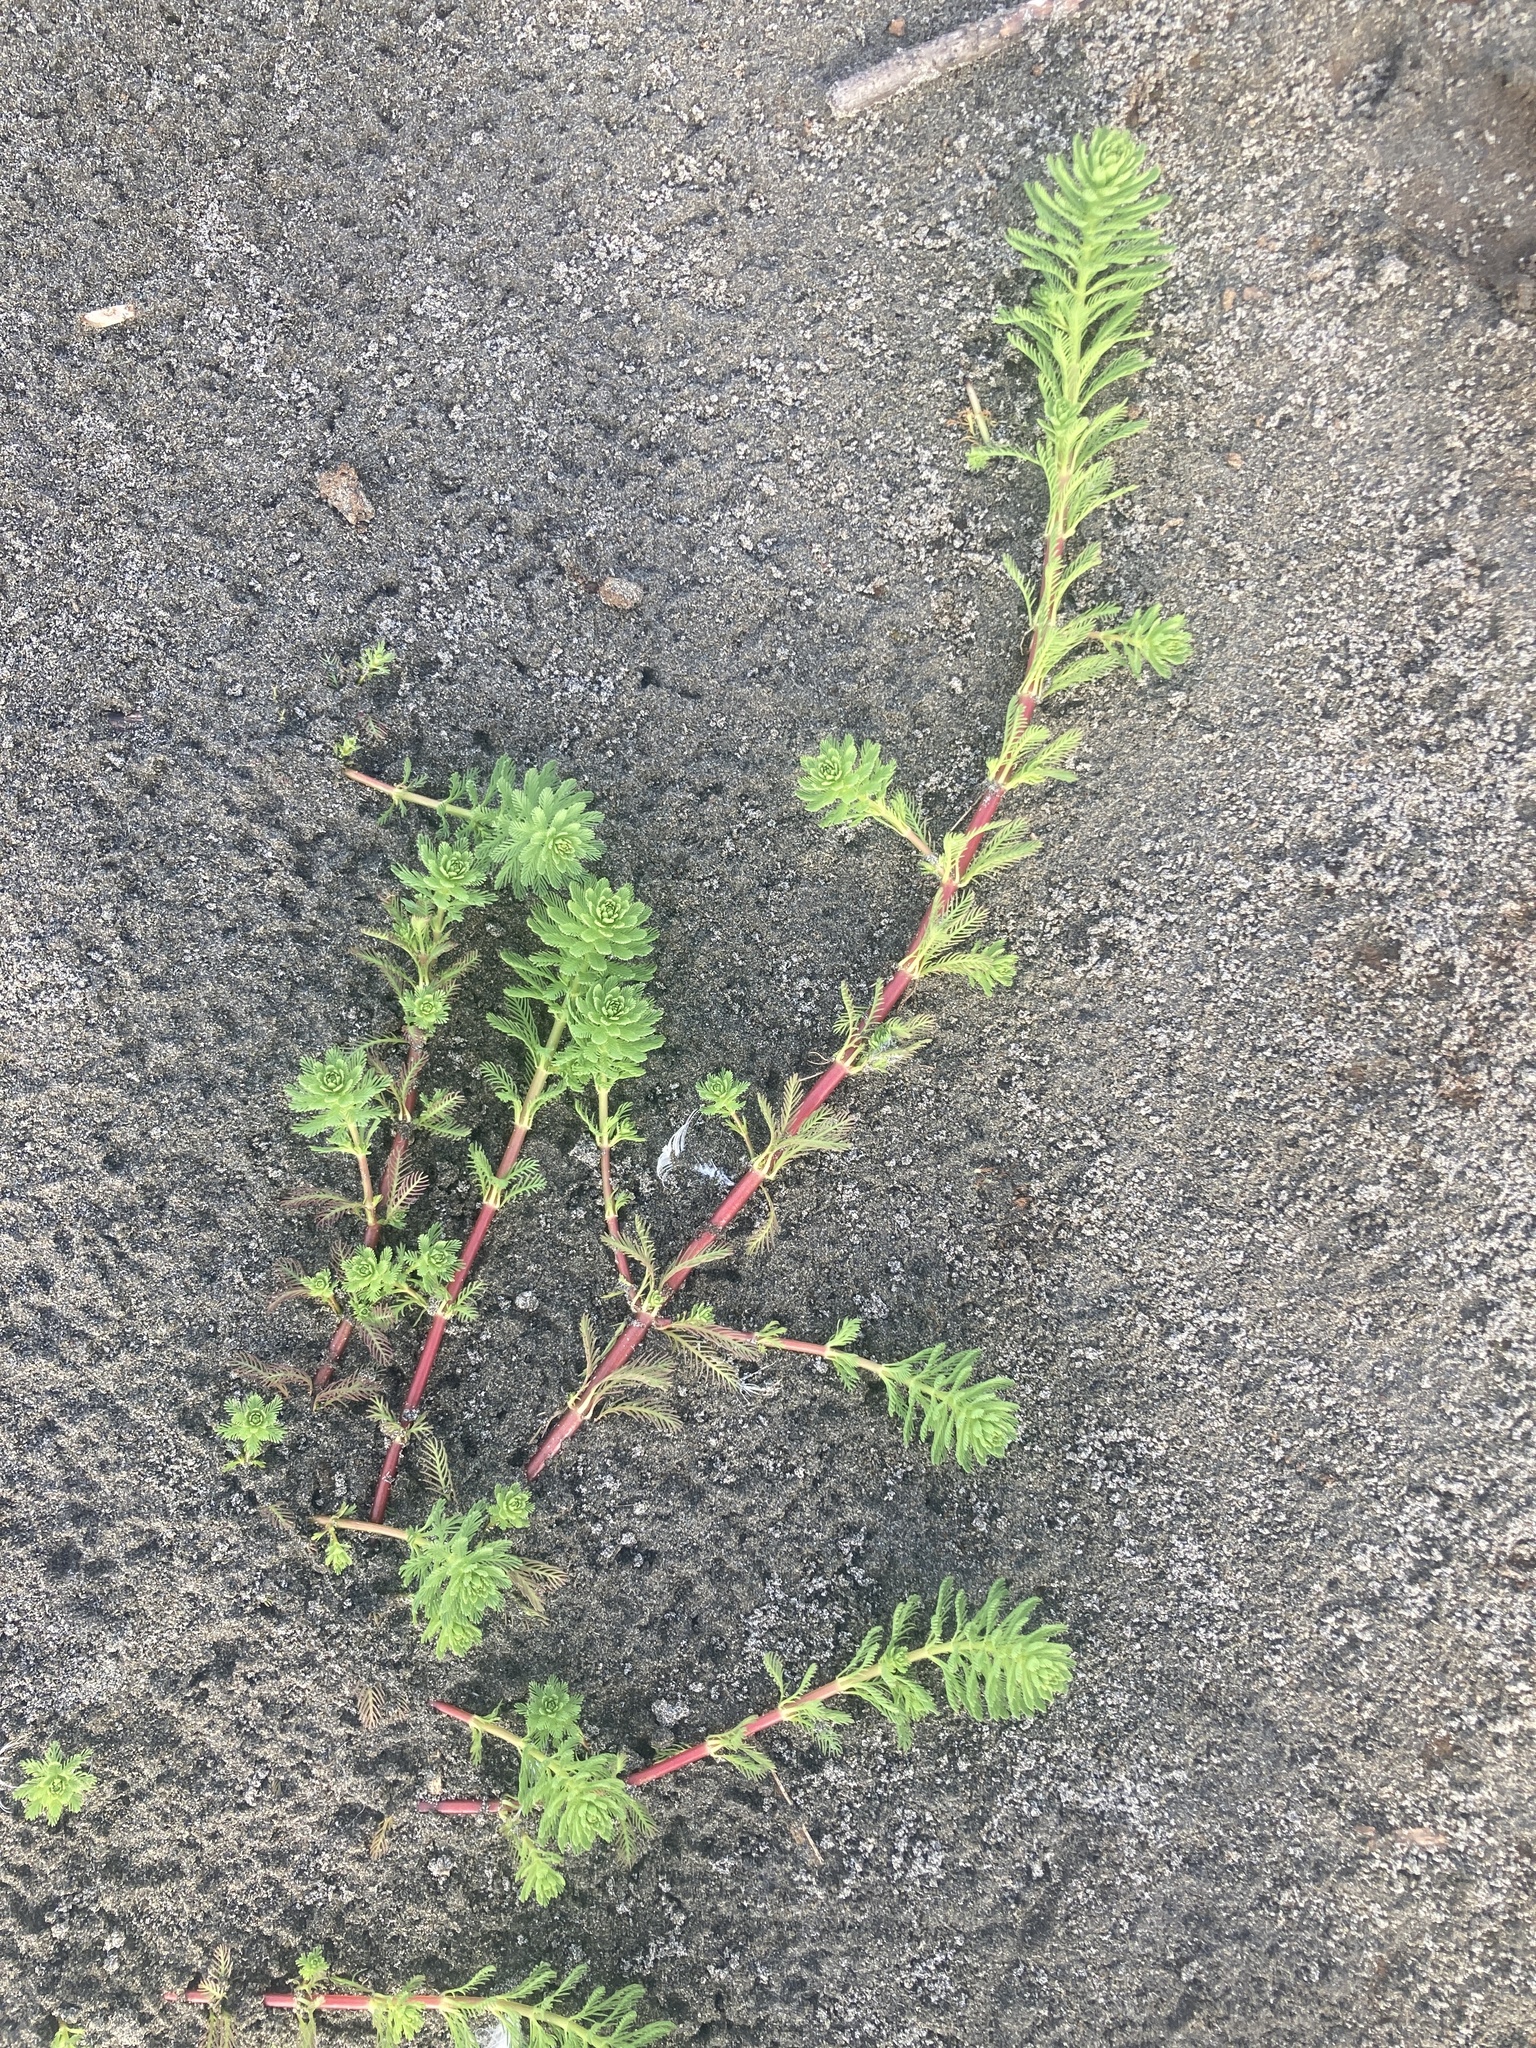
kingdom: Plantae
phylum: Tracheophyta
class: Magnoliopsida
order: Saxifragales
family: Haloragaceae
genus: Myriophyllum
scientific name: Myriophyllum aquaticum
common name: Parrot's feather
